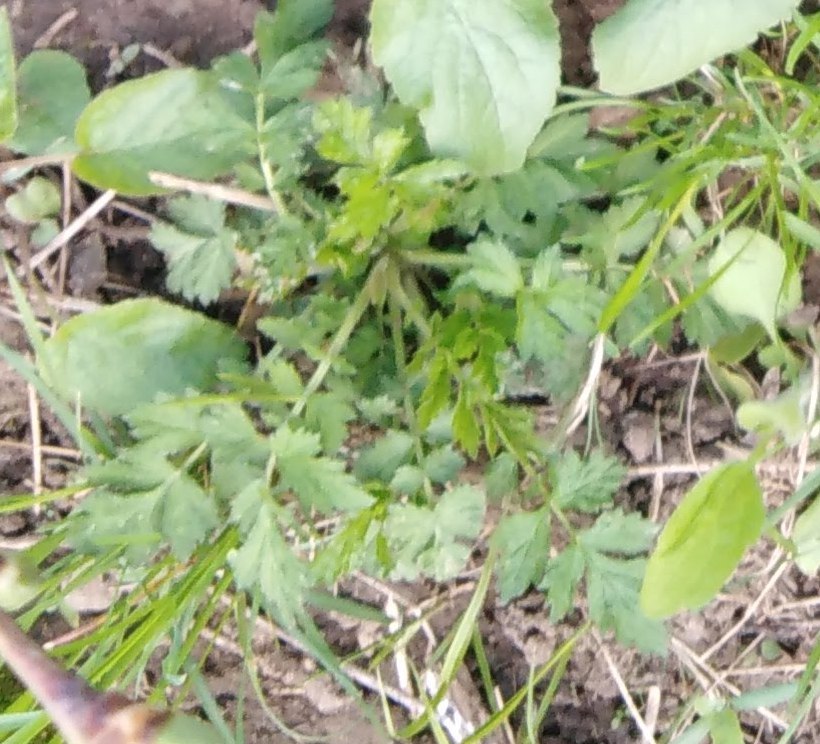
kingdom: Plantae
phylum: Tracheophyta
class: Magnoliopsida
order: Apiales
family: Apiaceae
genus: Pimpinella
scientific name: Pimpinella saxifraga
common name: Burnet-saxifrage
